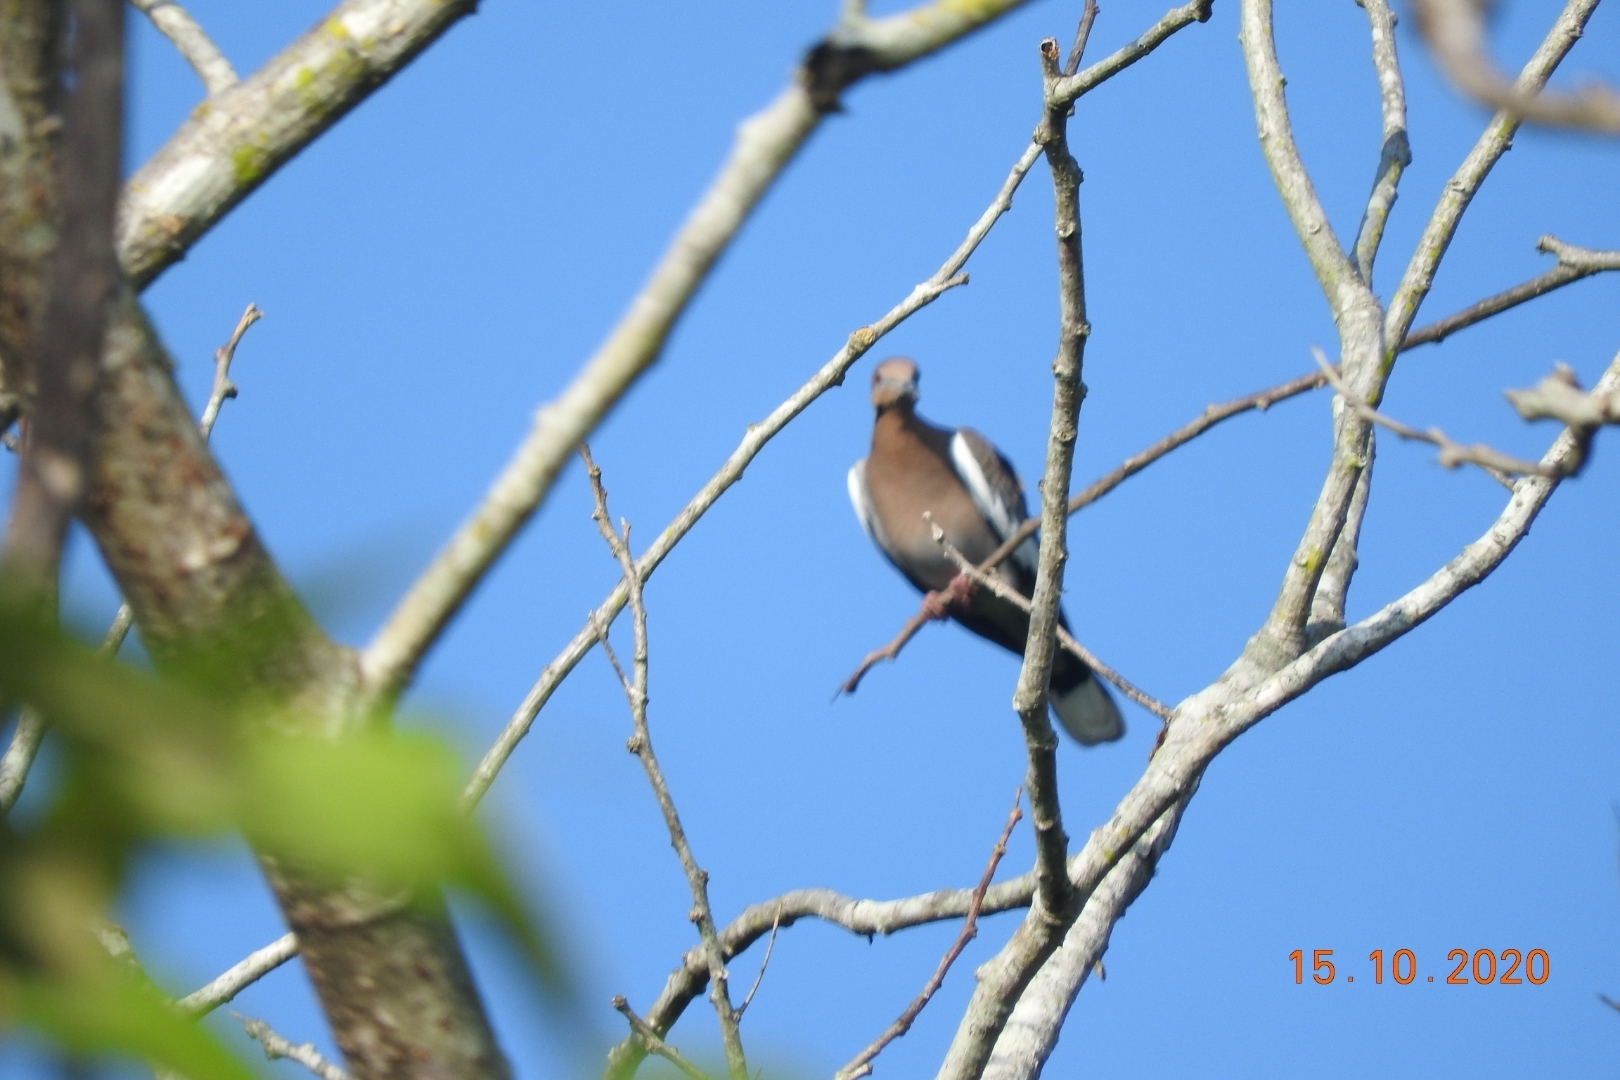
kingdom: Animalia
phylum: Chordata
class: Aves
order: Columbiformes
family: Columbidae
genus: Zenaida
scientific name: Zenaida asiatica
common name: White-winged dove
